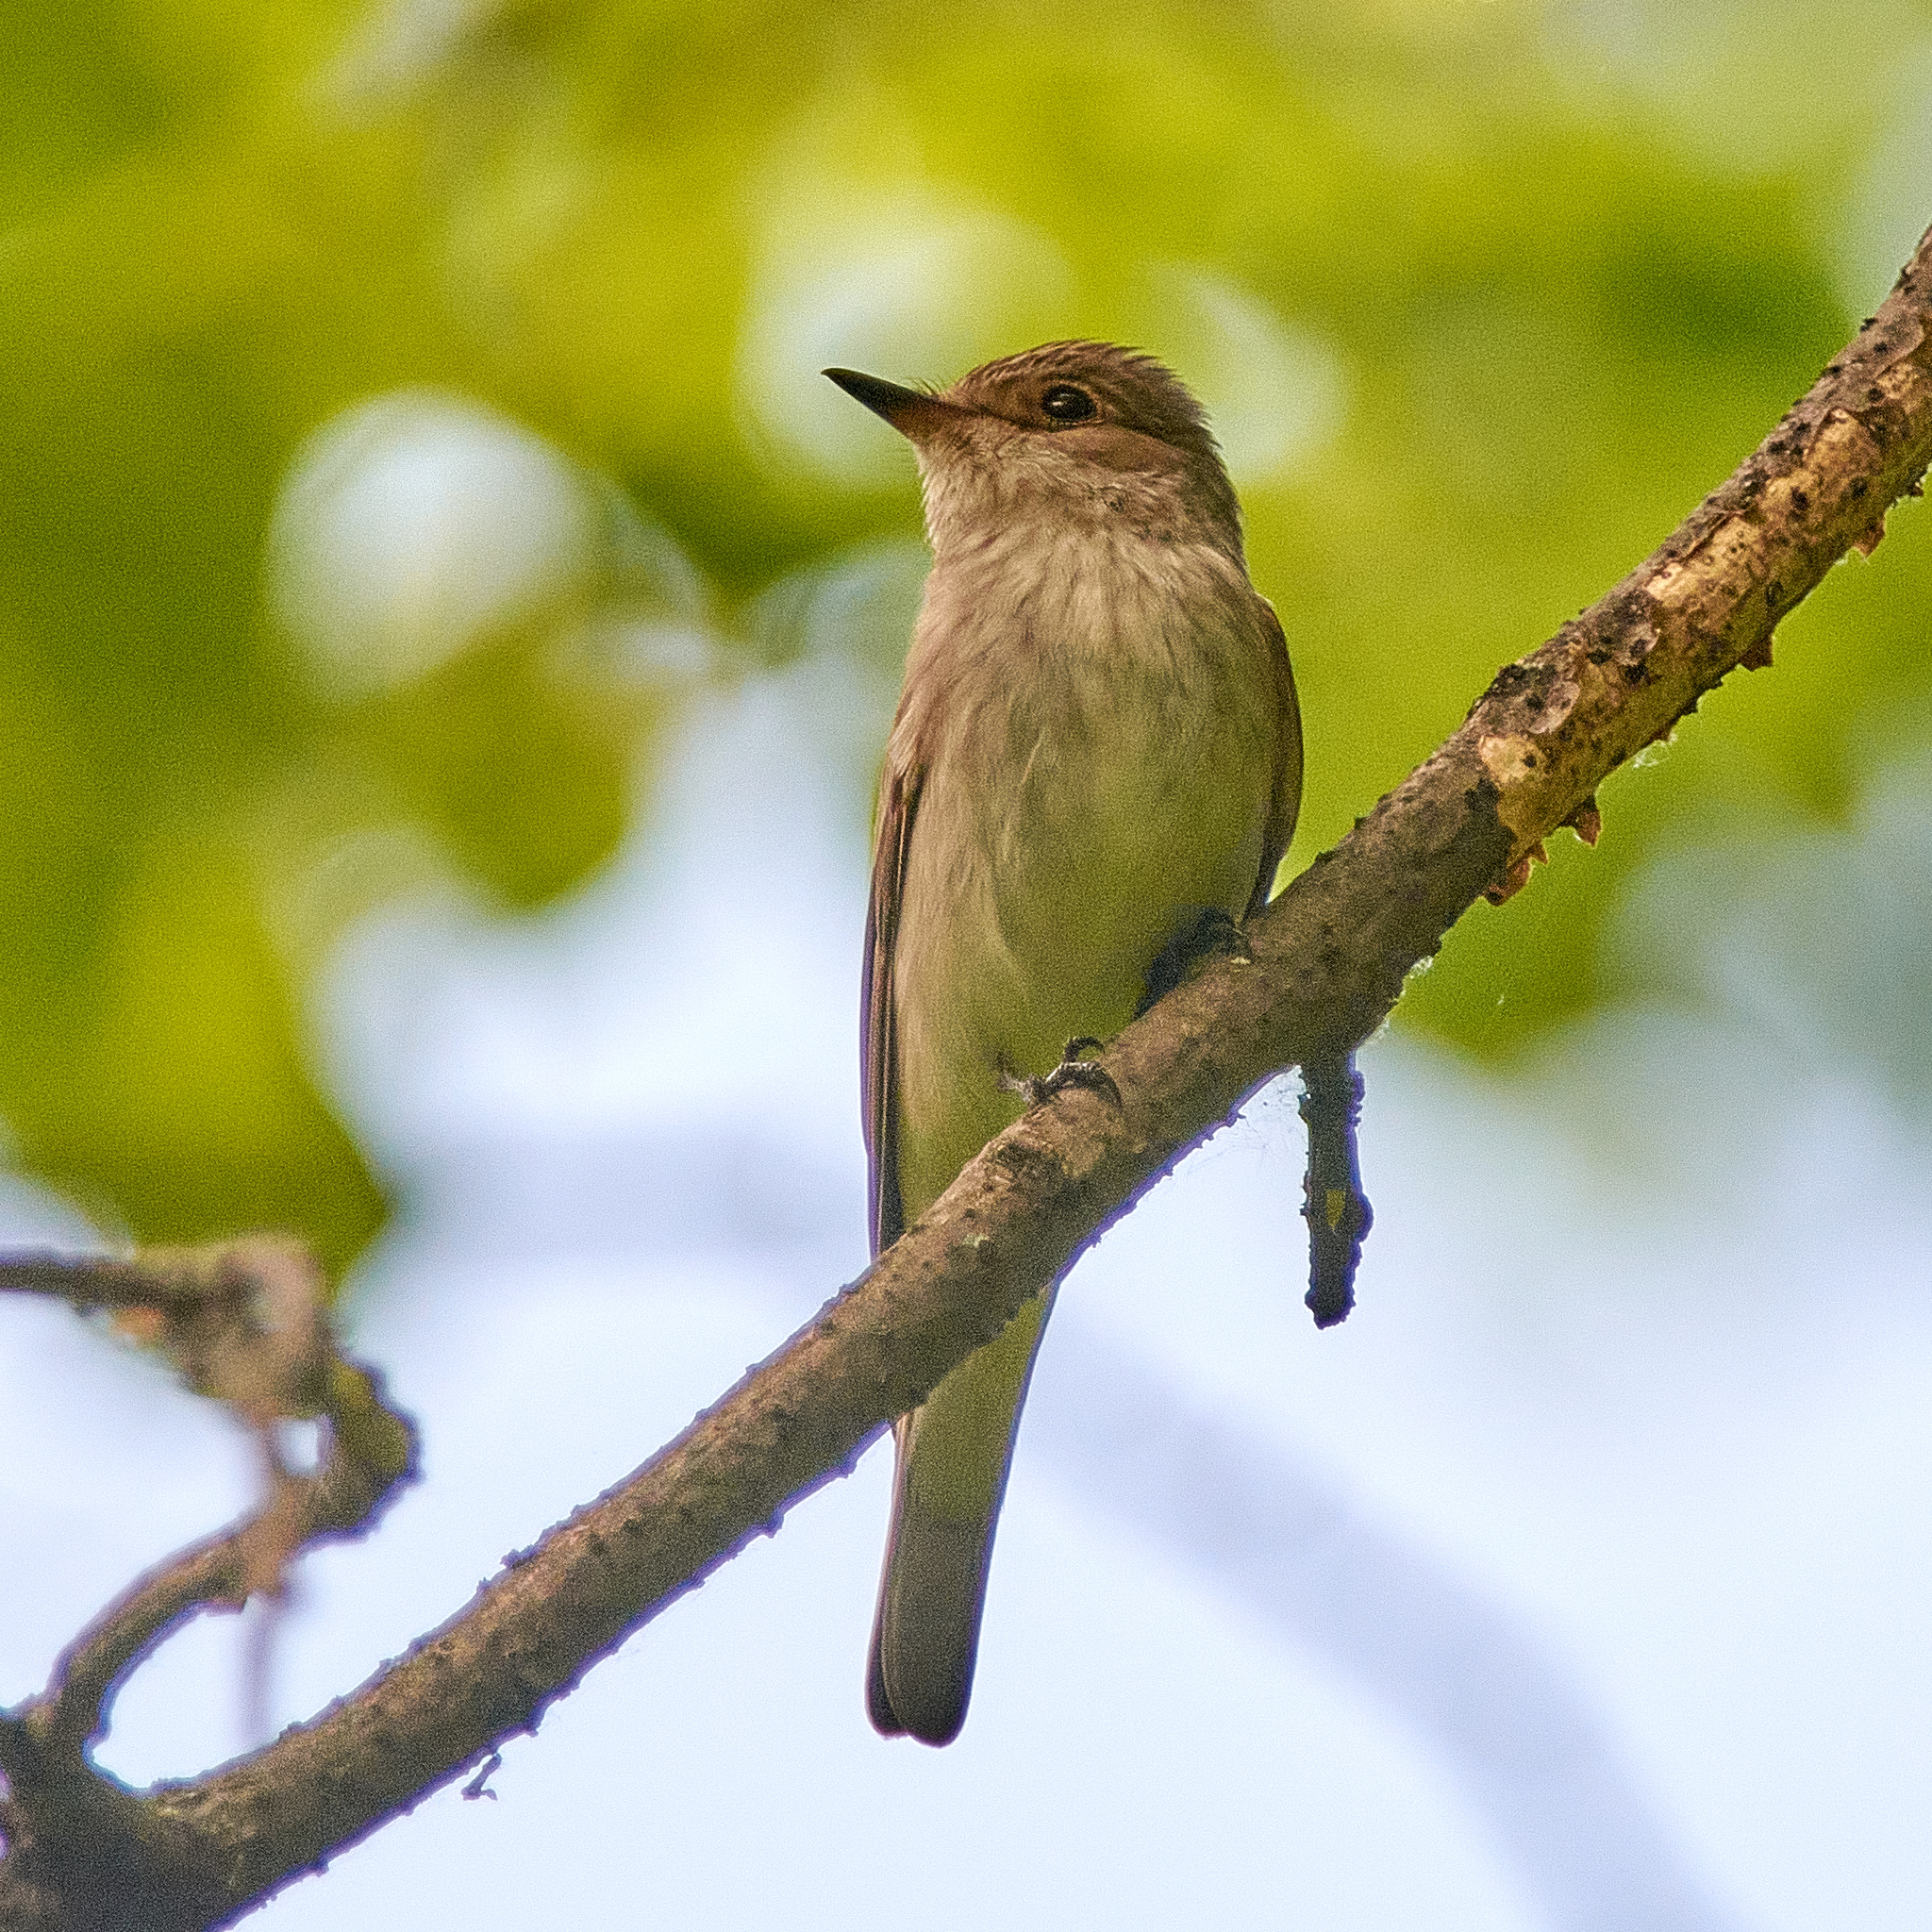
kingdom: Animalia
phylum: Chordata
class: Aves
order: Passeriformes
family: Muscicapidae
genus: Muscicapa
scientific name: Muscicapa striata
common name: Spotted flycatcher
